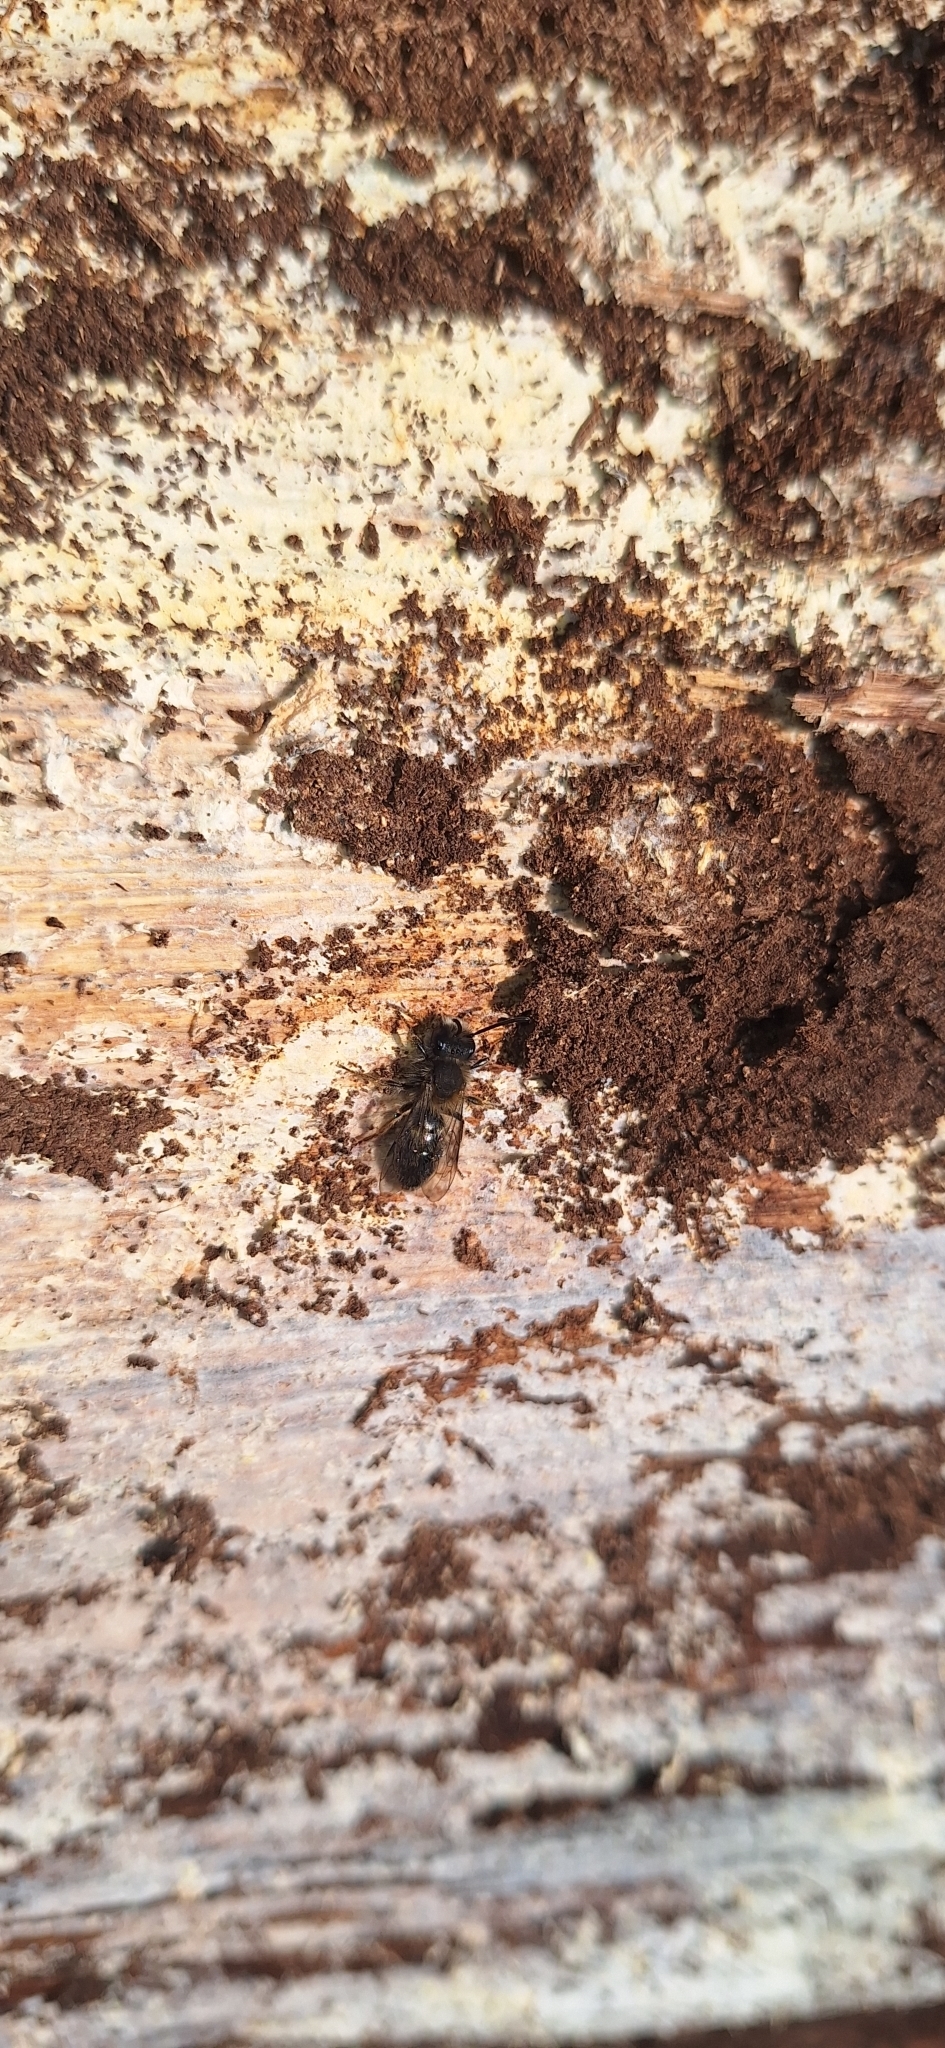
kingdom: Animalia
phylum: Arthropoda
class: Insecta
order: Hymenoptera
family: Andrenidae
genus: Andrena
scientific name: Andrena clarkella
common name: Clarke's mining bee
